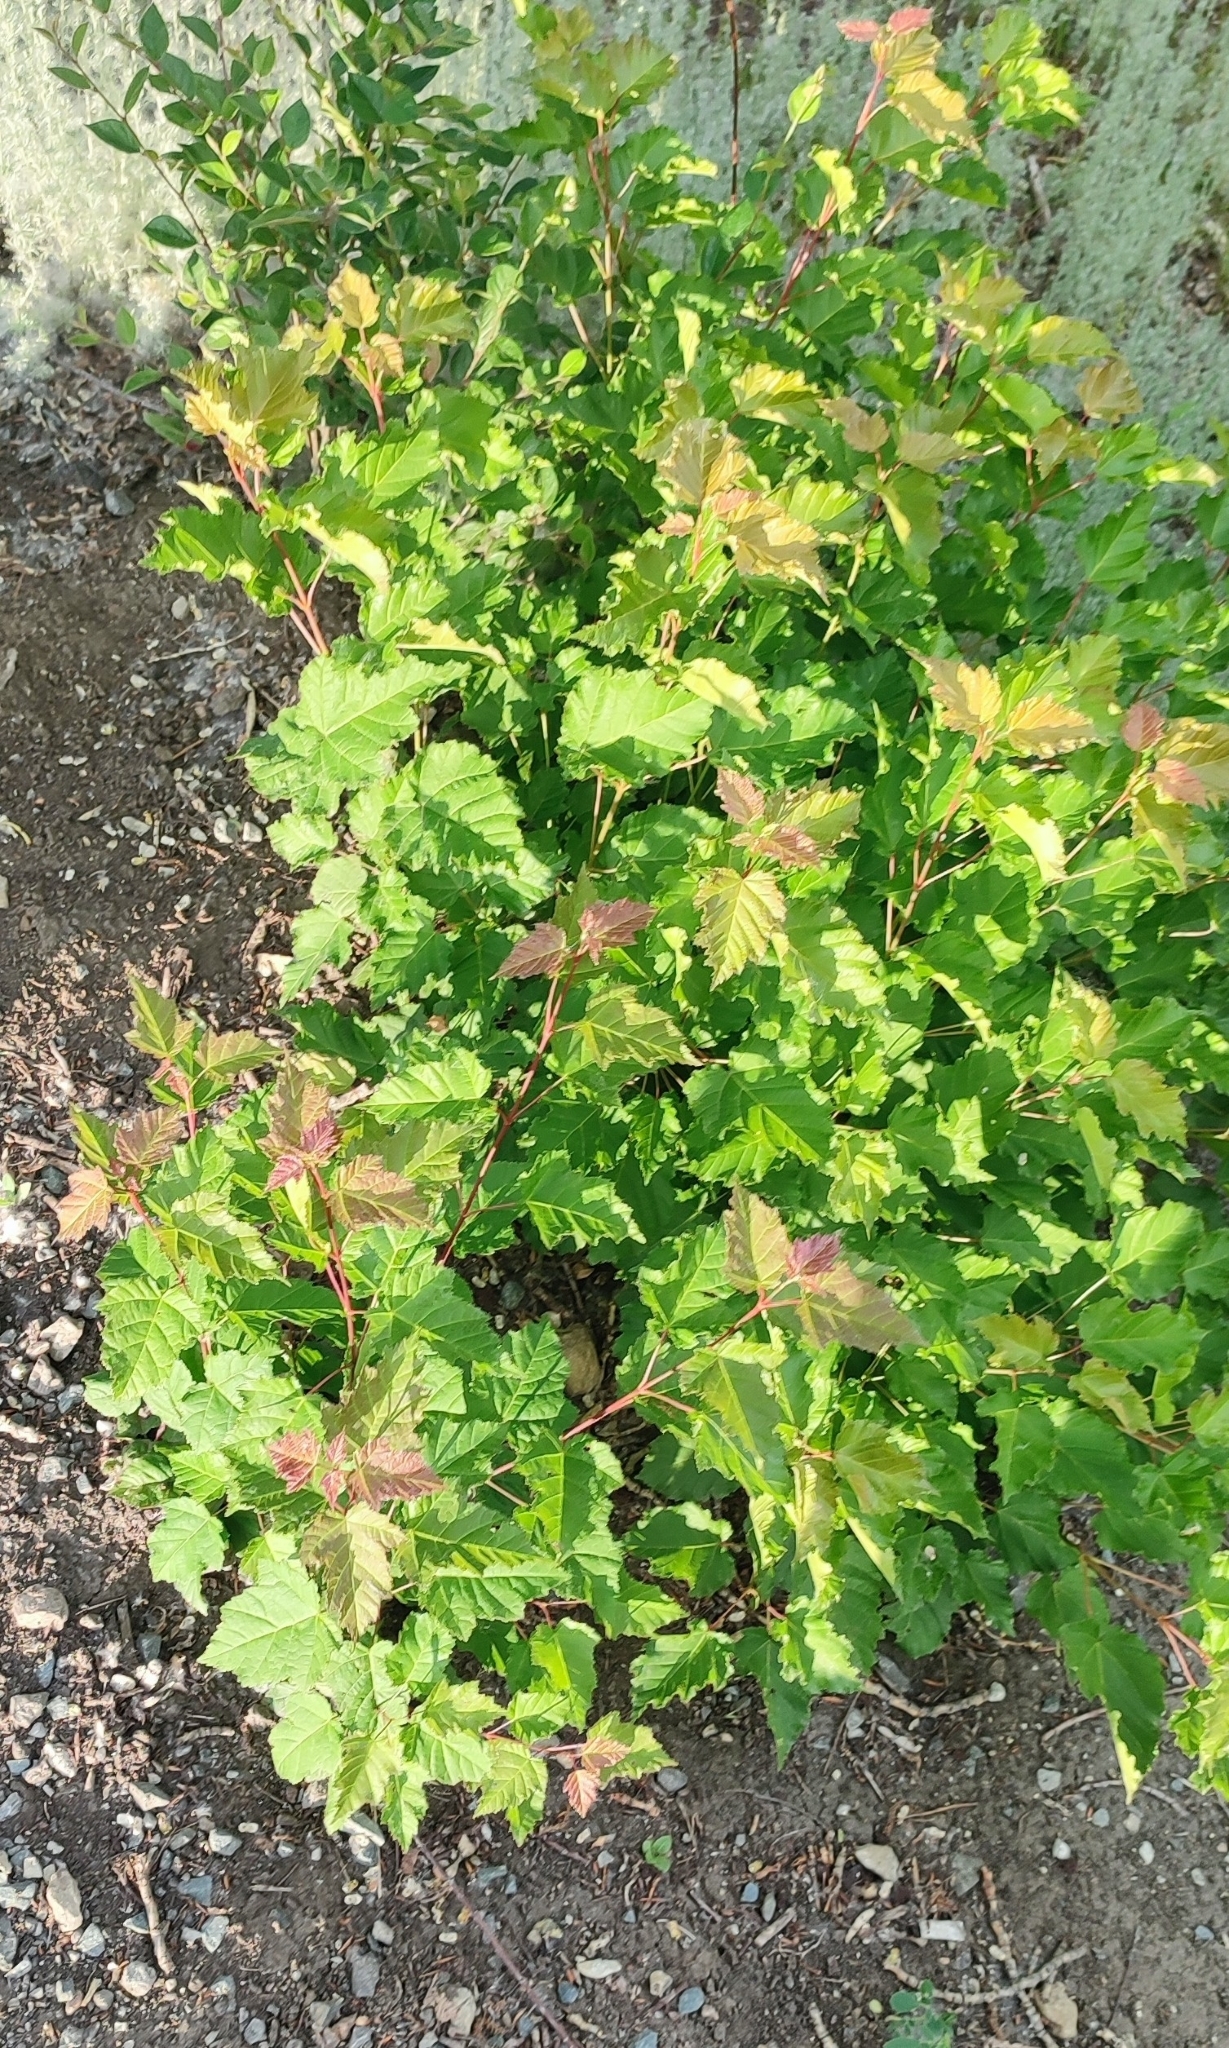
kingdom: Plantae
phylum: Tracheophyta
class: Magnoliopsida
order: Sapindales
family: Sapindaceae
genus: Acer
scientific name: Acer tataricum
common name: Tartar maple
